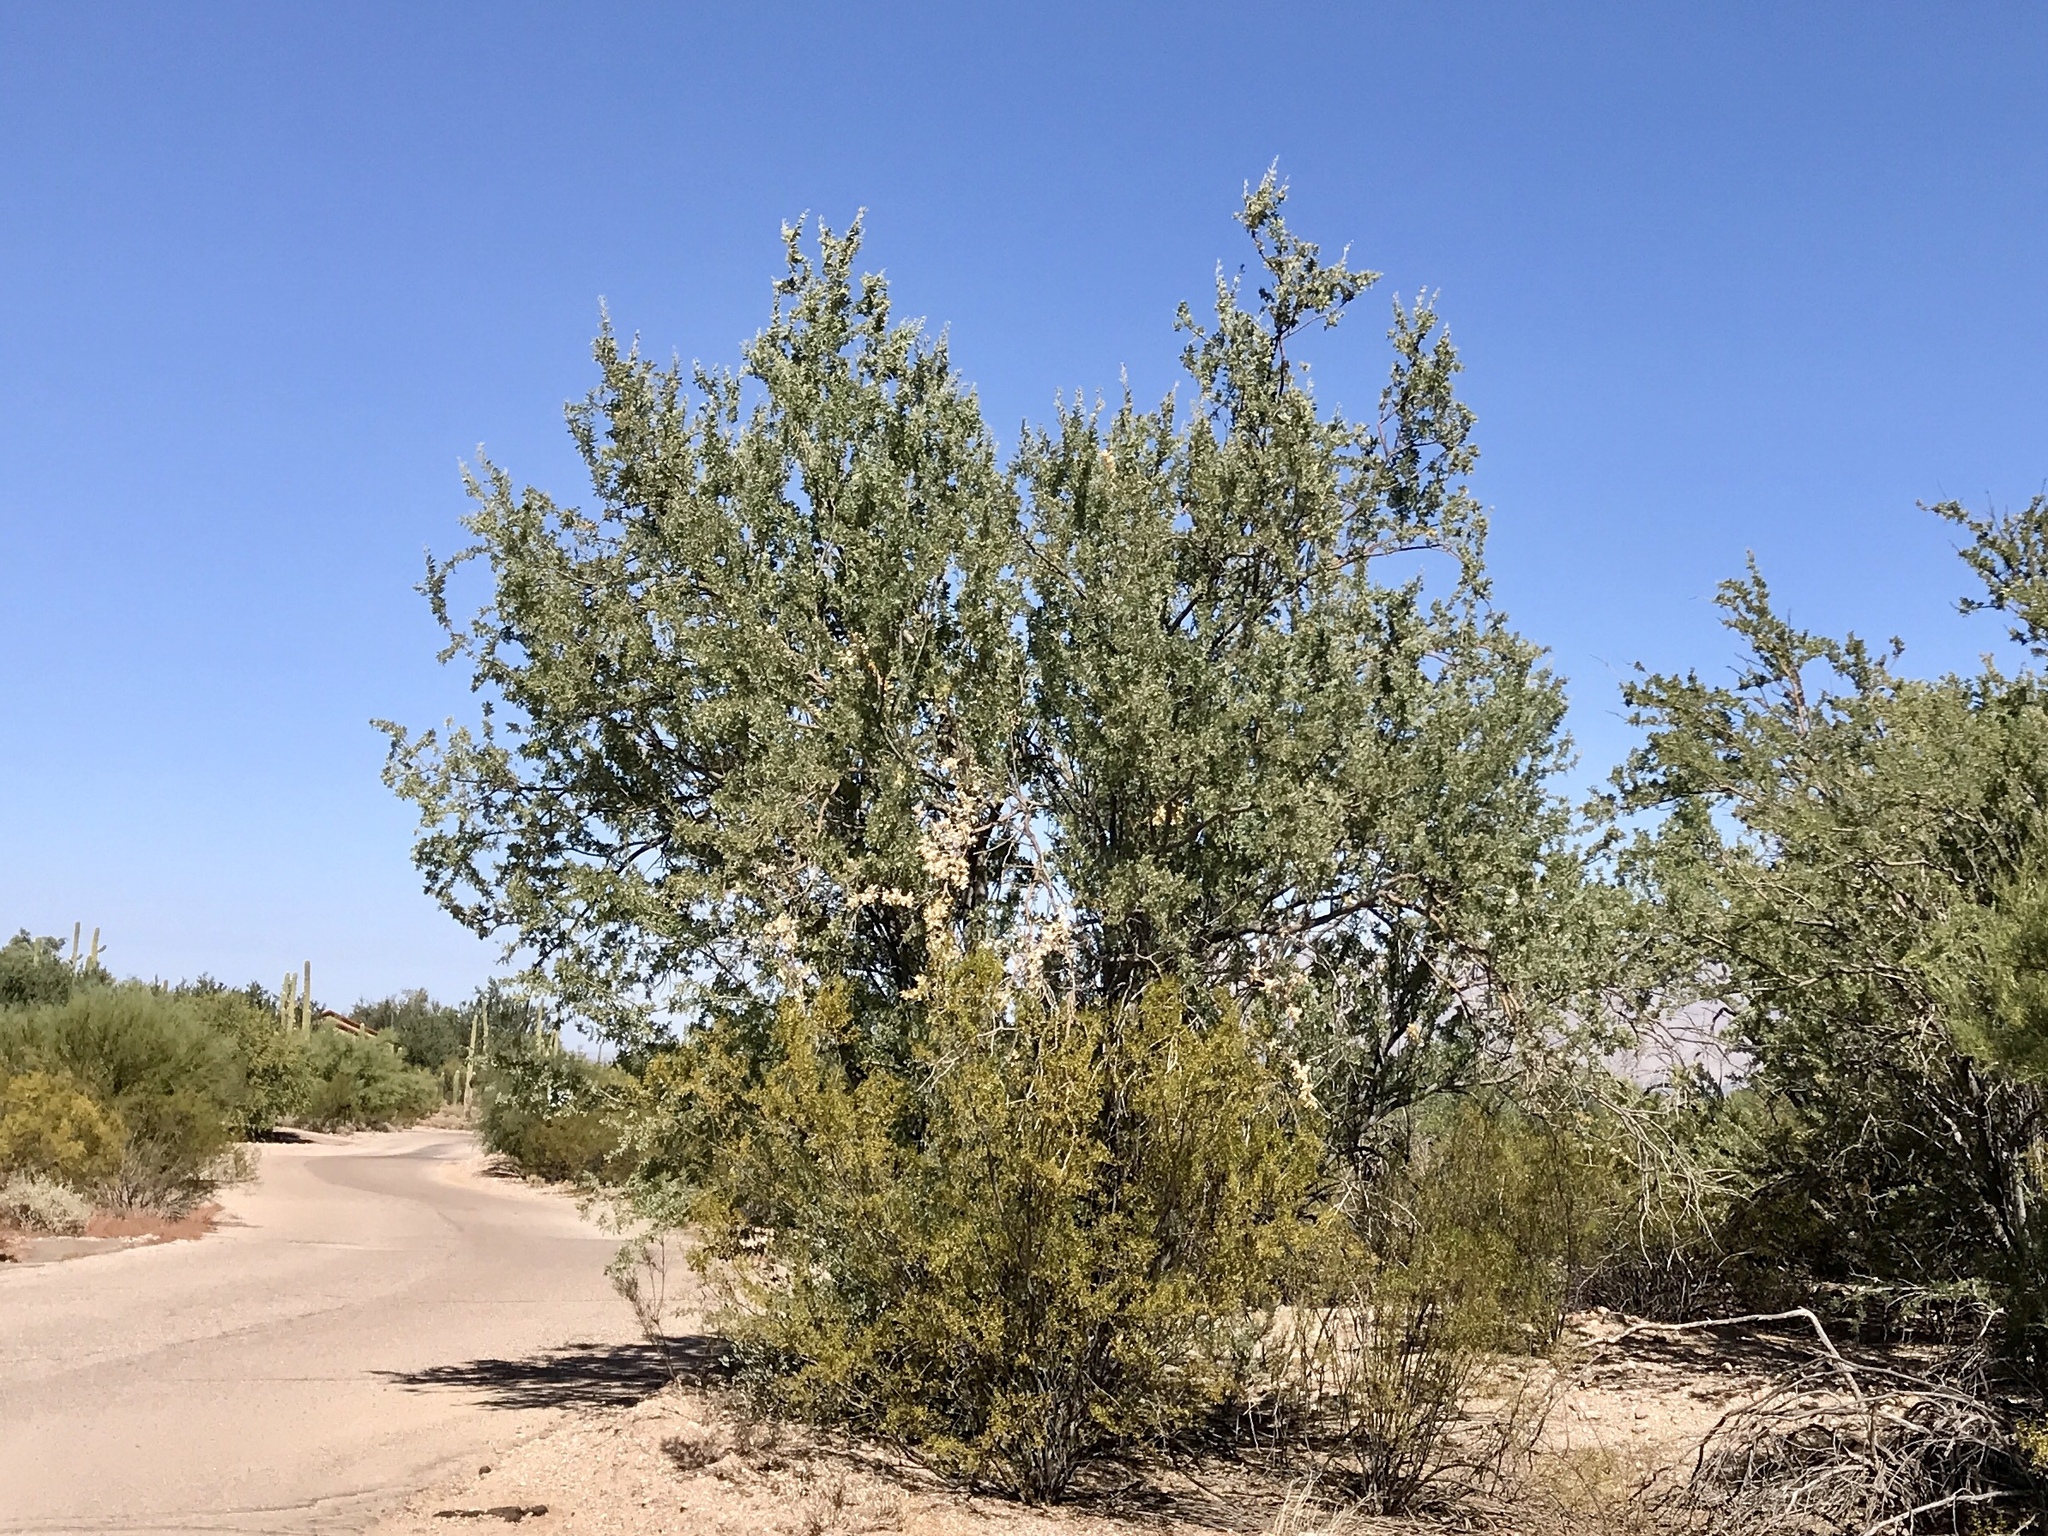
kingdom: Plantae
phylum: Tracheophyta
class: Magnoliopsida
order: Fabales
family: Fabaceae
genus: Olneya
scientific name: Olneya tesota
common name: Desert ironwood
